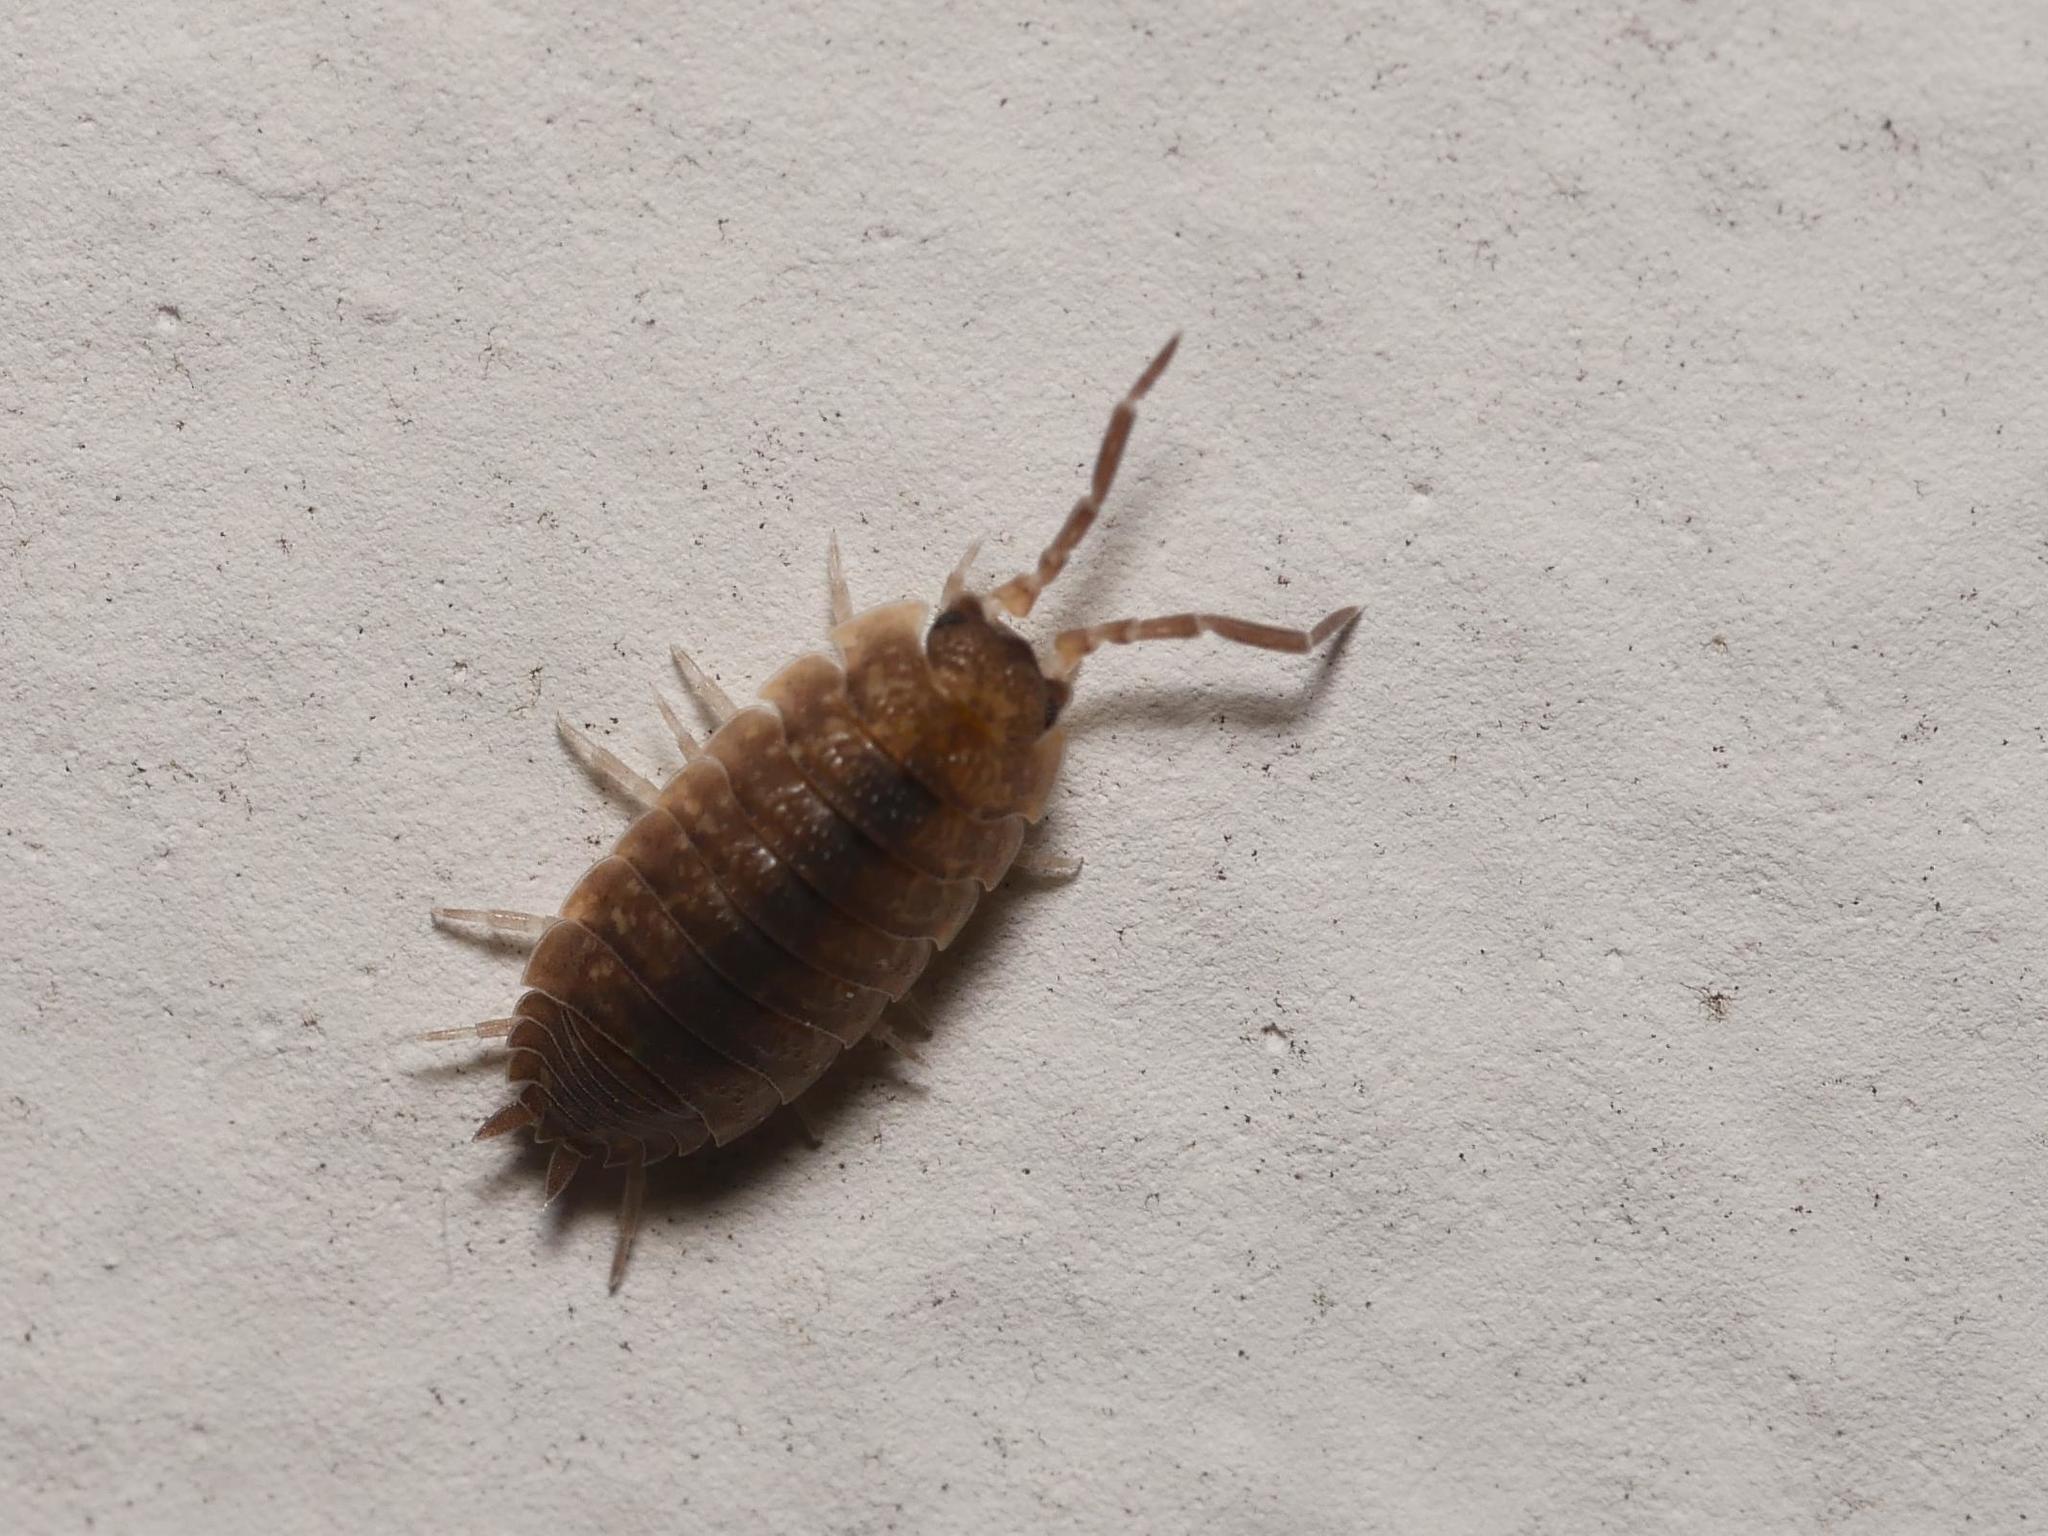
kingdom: Animalia
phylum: Arthropoda
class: Malacostraca
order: Isopoda
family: Porcellionidae
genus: Porcellio
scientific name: Porcellio scaber
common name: Common rough woodlouse
